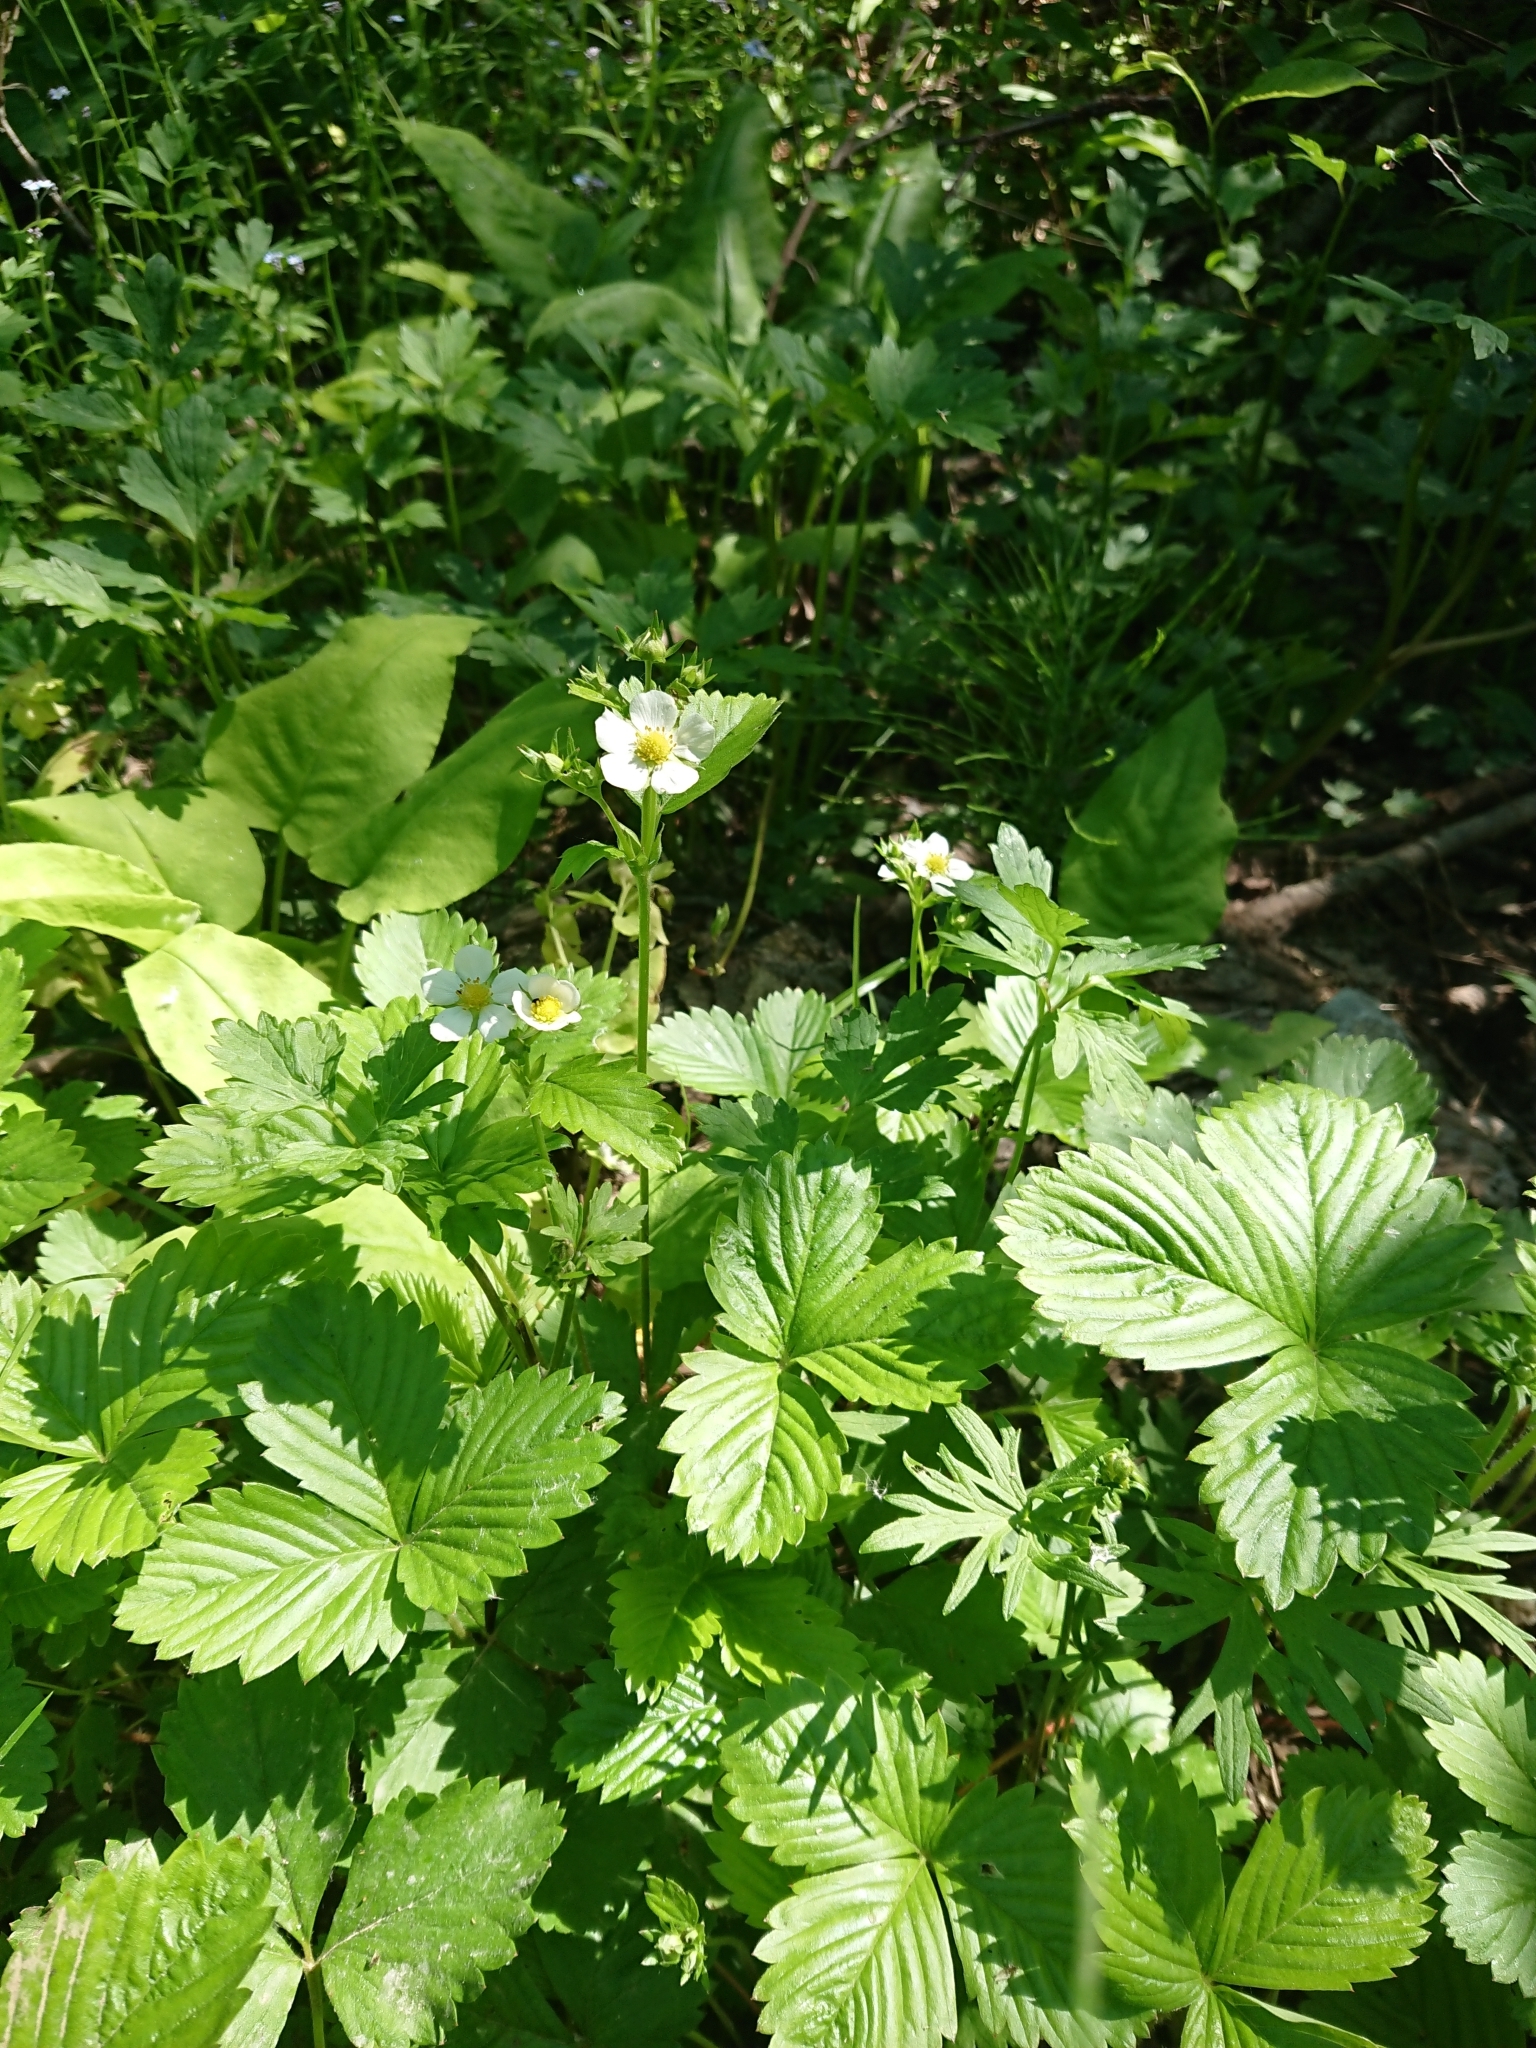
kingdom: Plantae
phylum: Tracheophyta
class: Magnoliopsida
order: Rosales
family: Rosaceae
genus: Fragaria
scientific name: Fragaria vesca
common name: Wild strawberry
